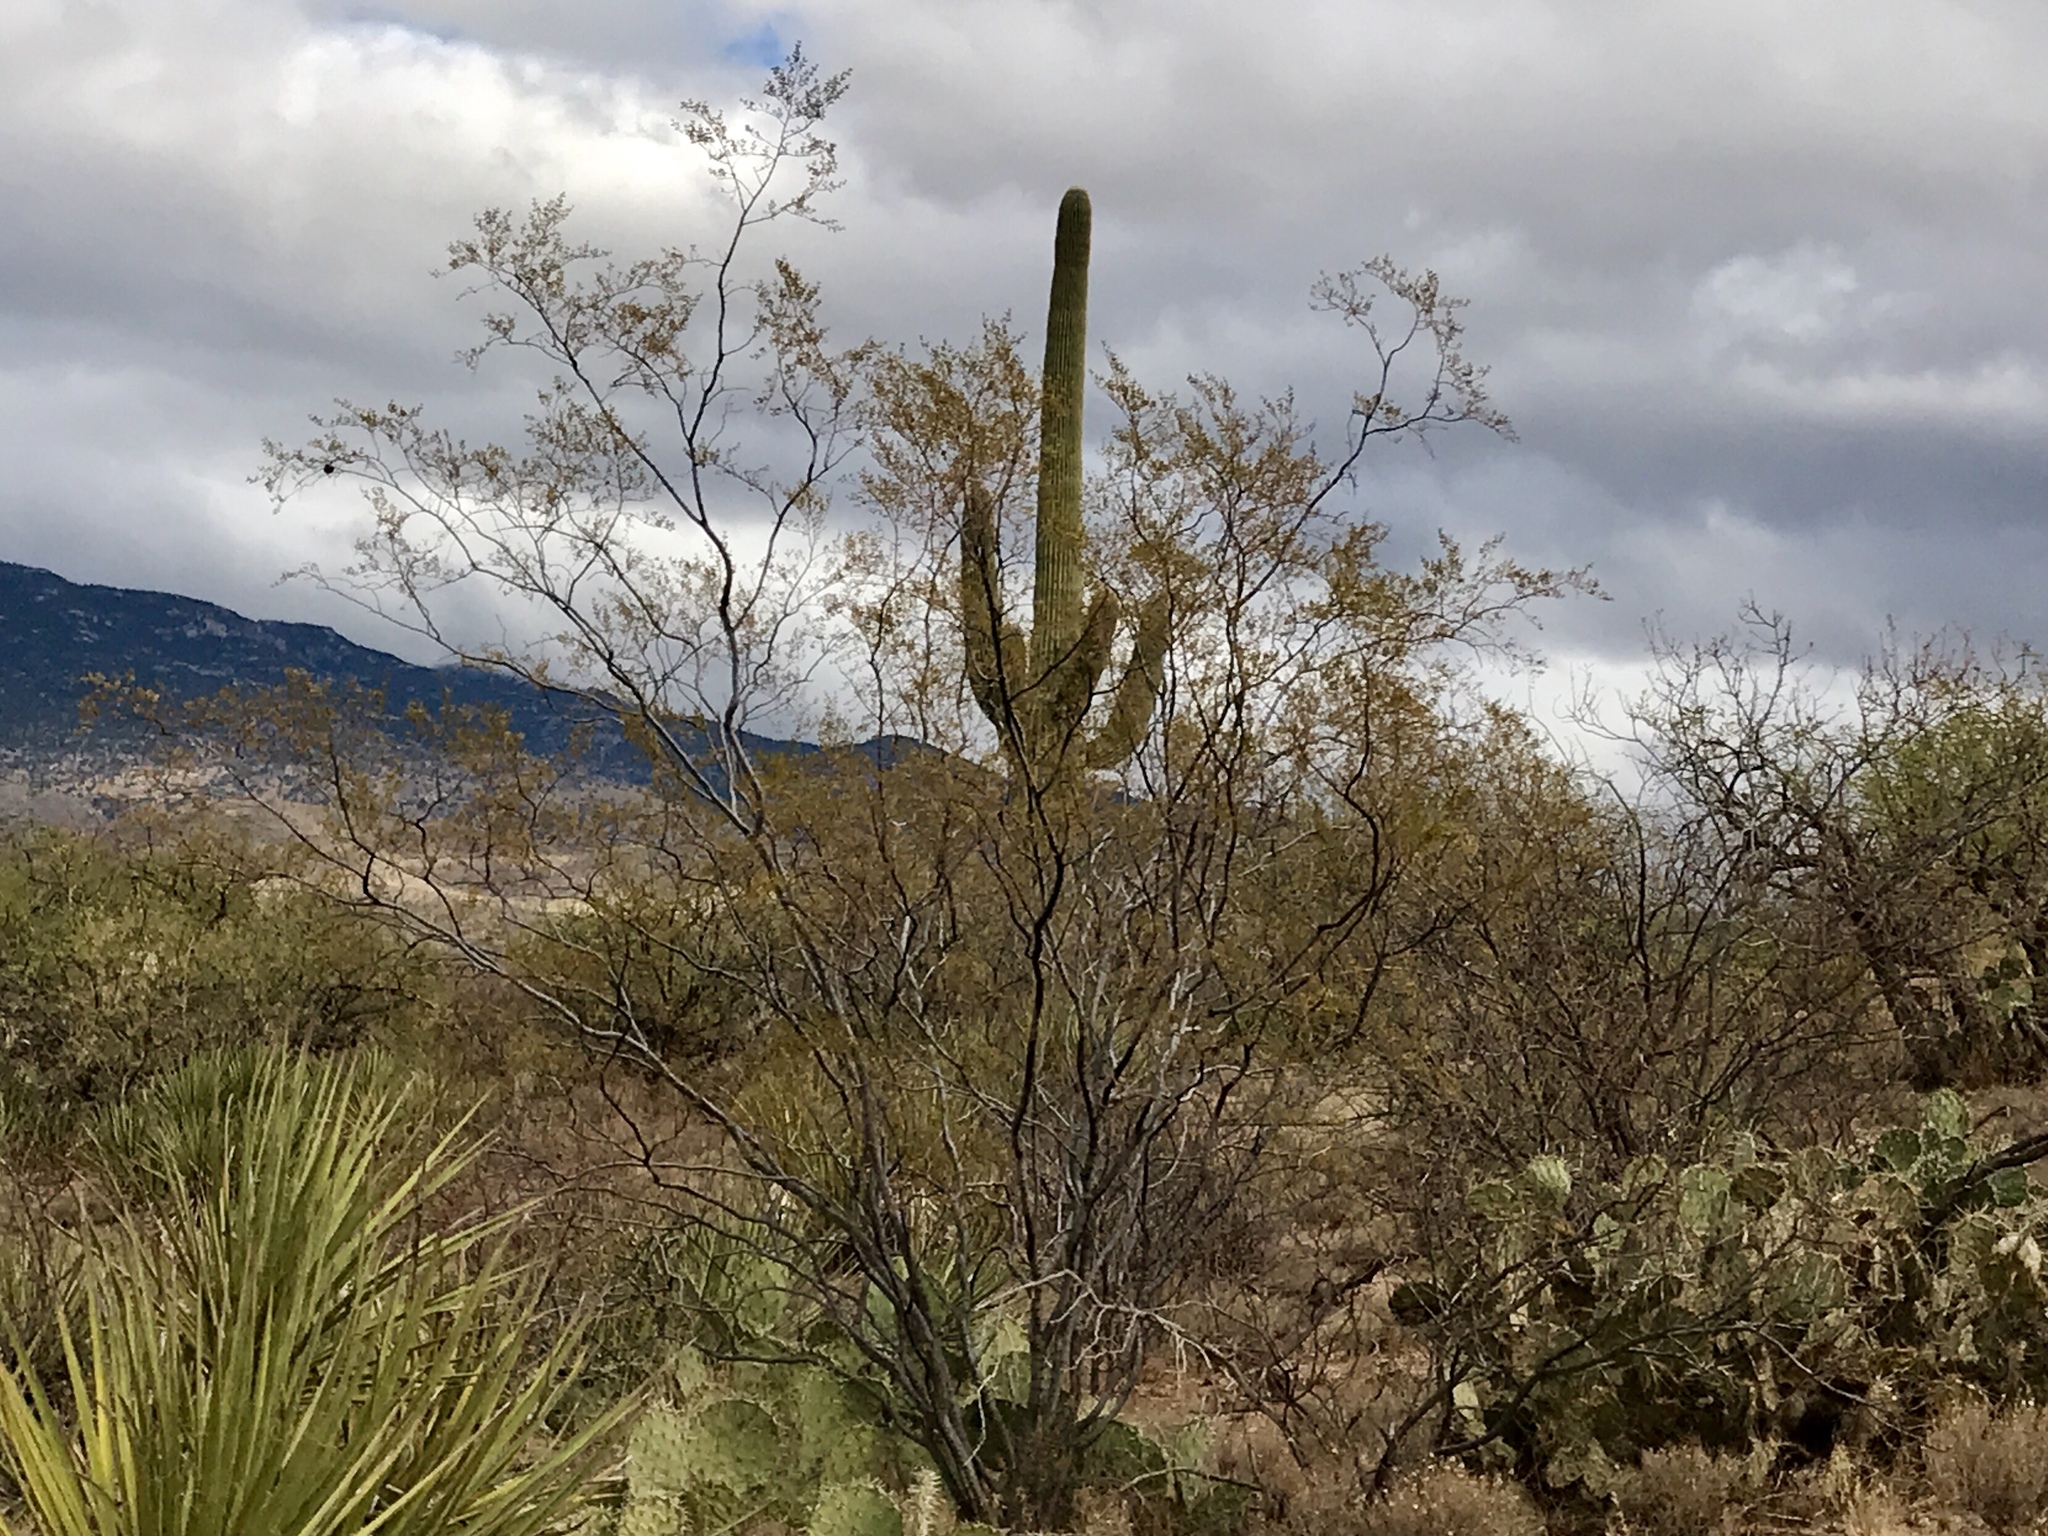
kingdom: Plantae
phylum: Tracheophyta
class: Magnoliopsida
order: Zygophyllales
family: Zygophyllaceae
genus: Larrea
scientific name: Larrea tridentata
